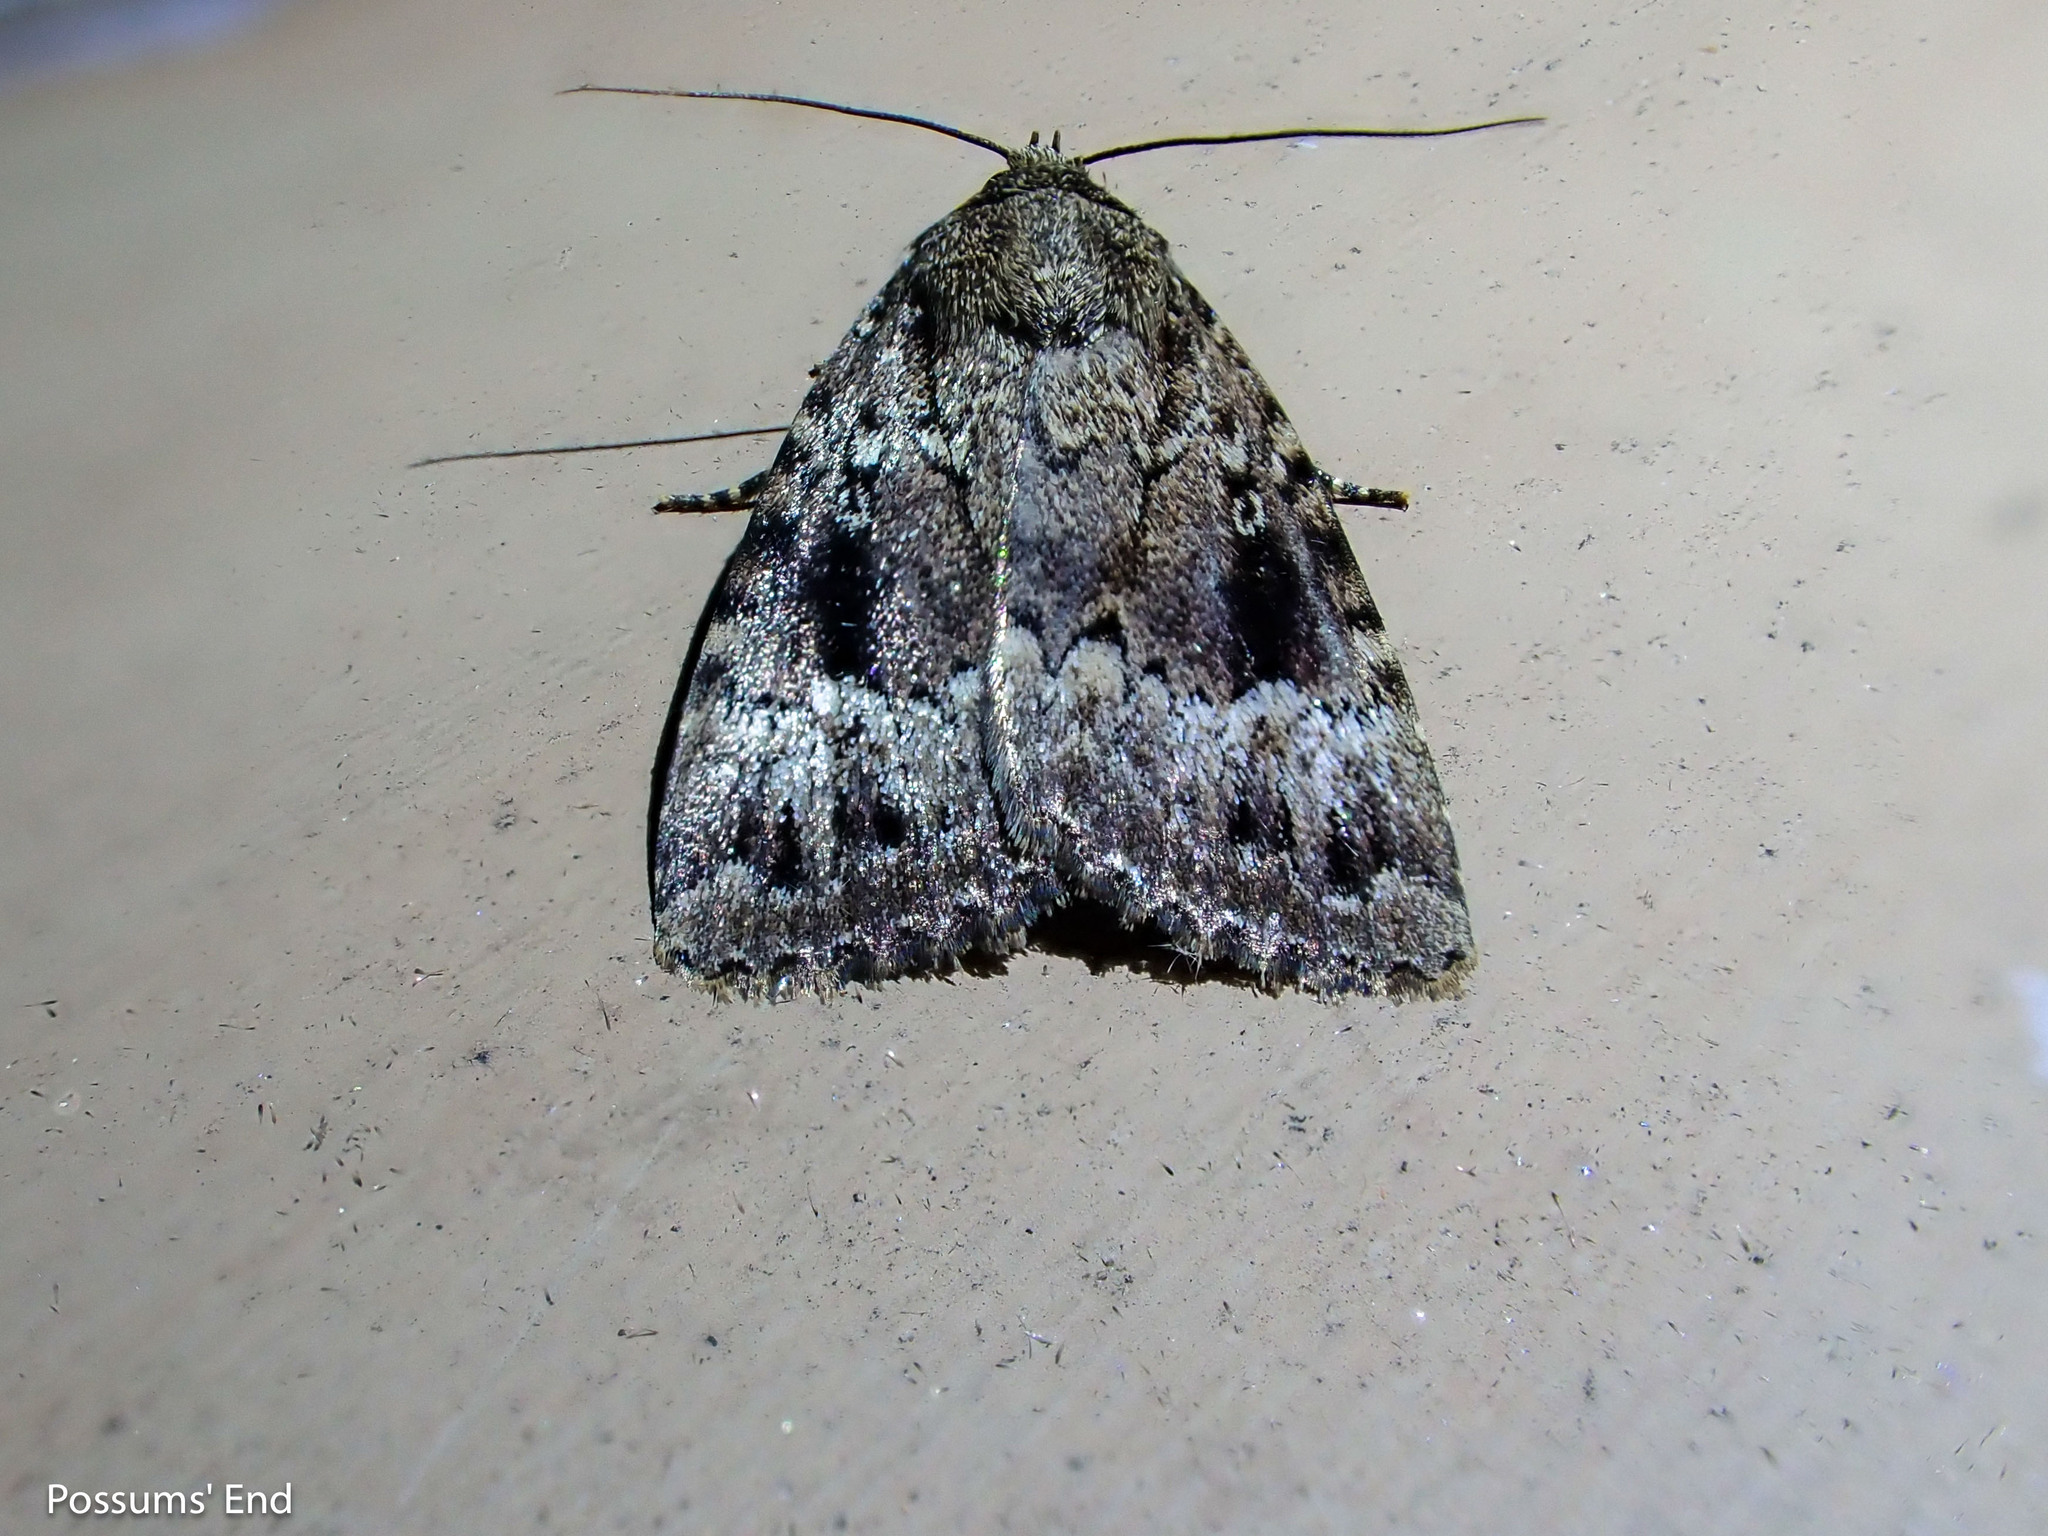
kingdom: Animalia
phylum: Arthropoda
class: Insecta
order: Lepidoptera
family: Noctuidae
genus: Amphipyra
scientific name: Amphipyra
